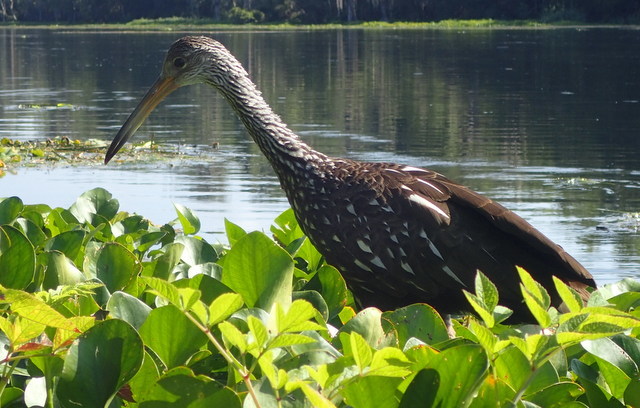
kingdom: Animalia
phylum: Chordata
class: Aves
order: Gruiformes
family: Aramidae
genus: Aramus
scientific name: Aramus guarauna
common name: Limpkin
